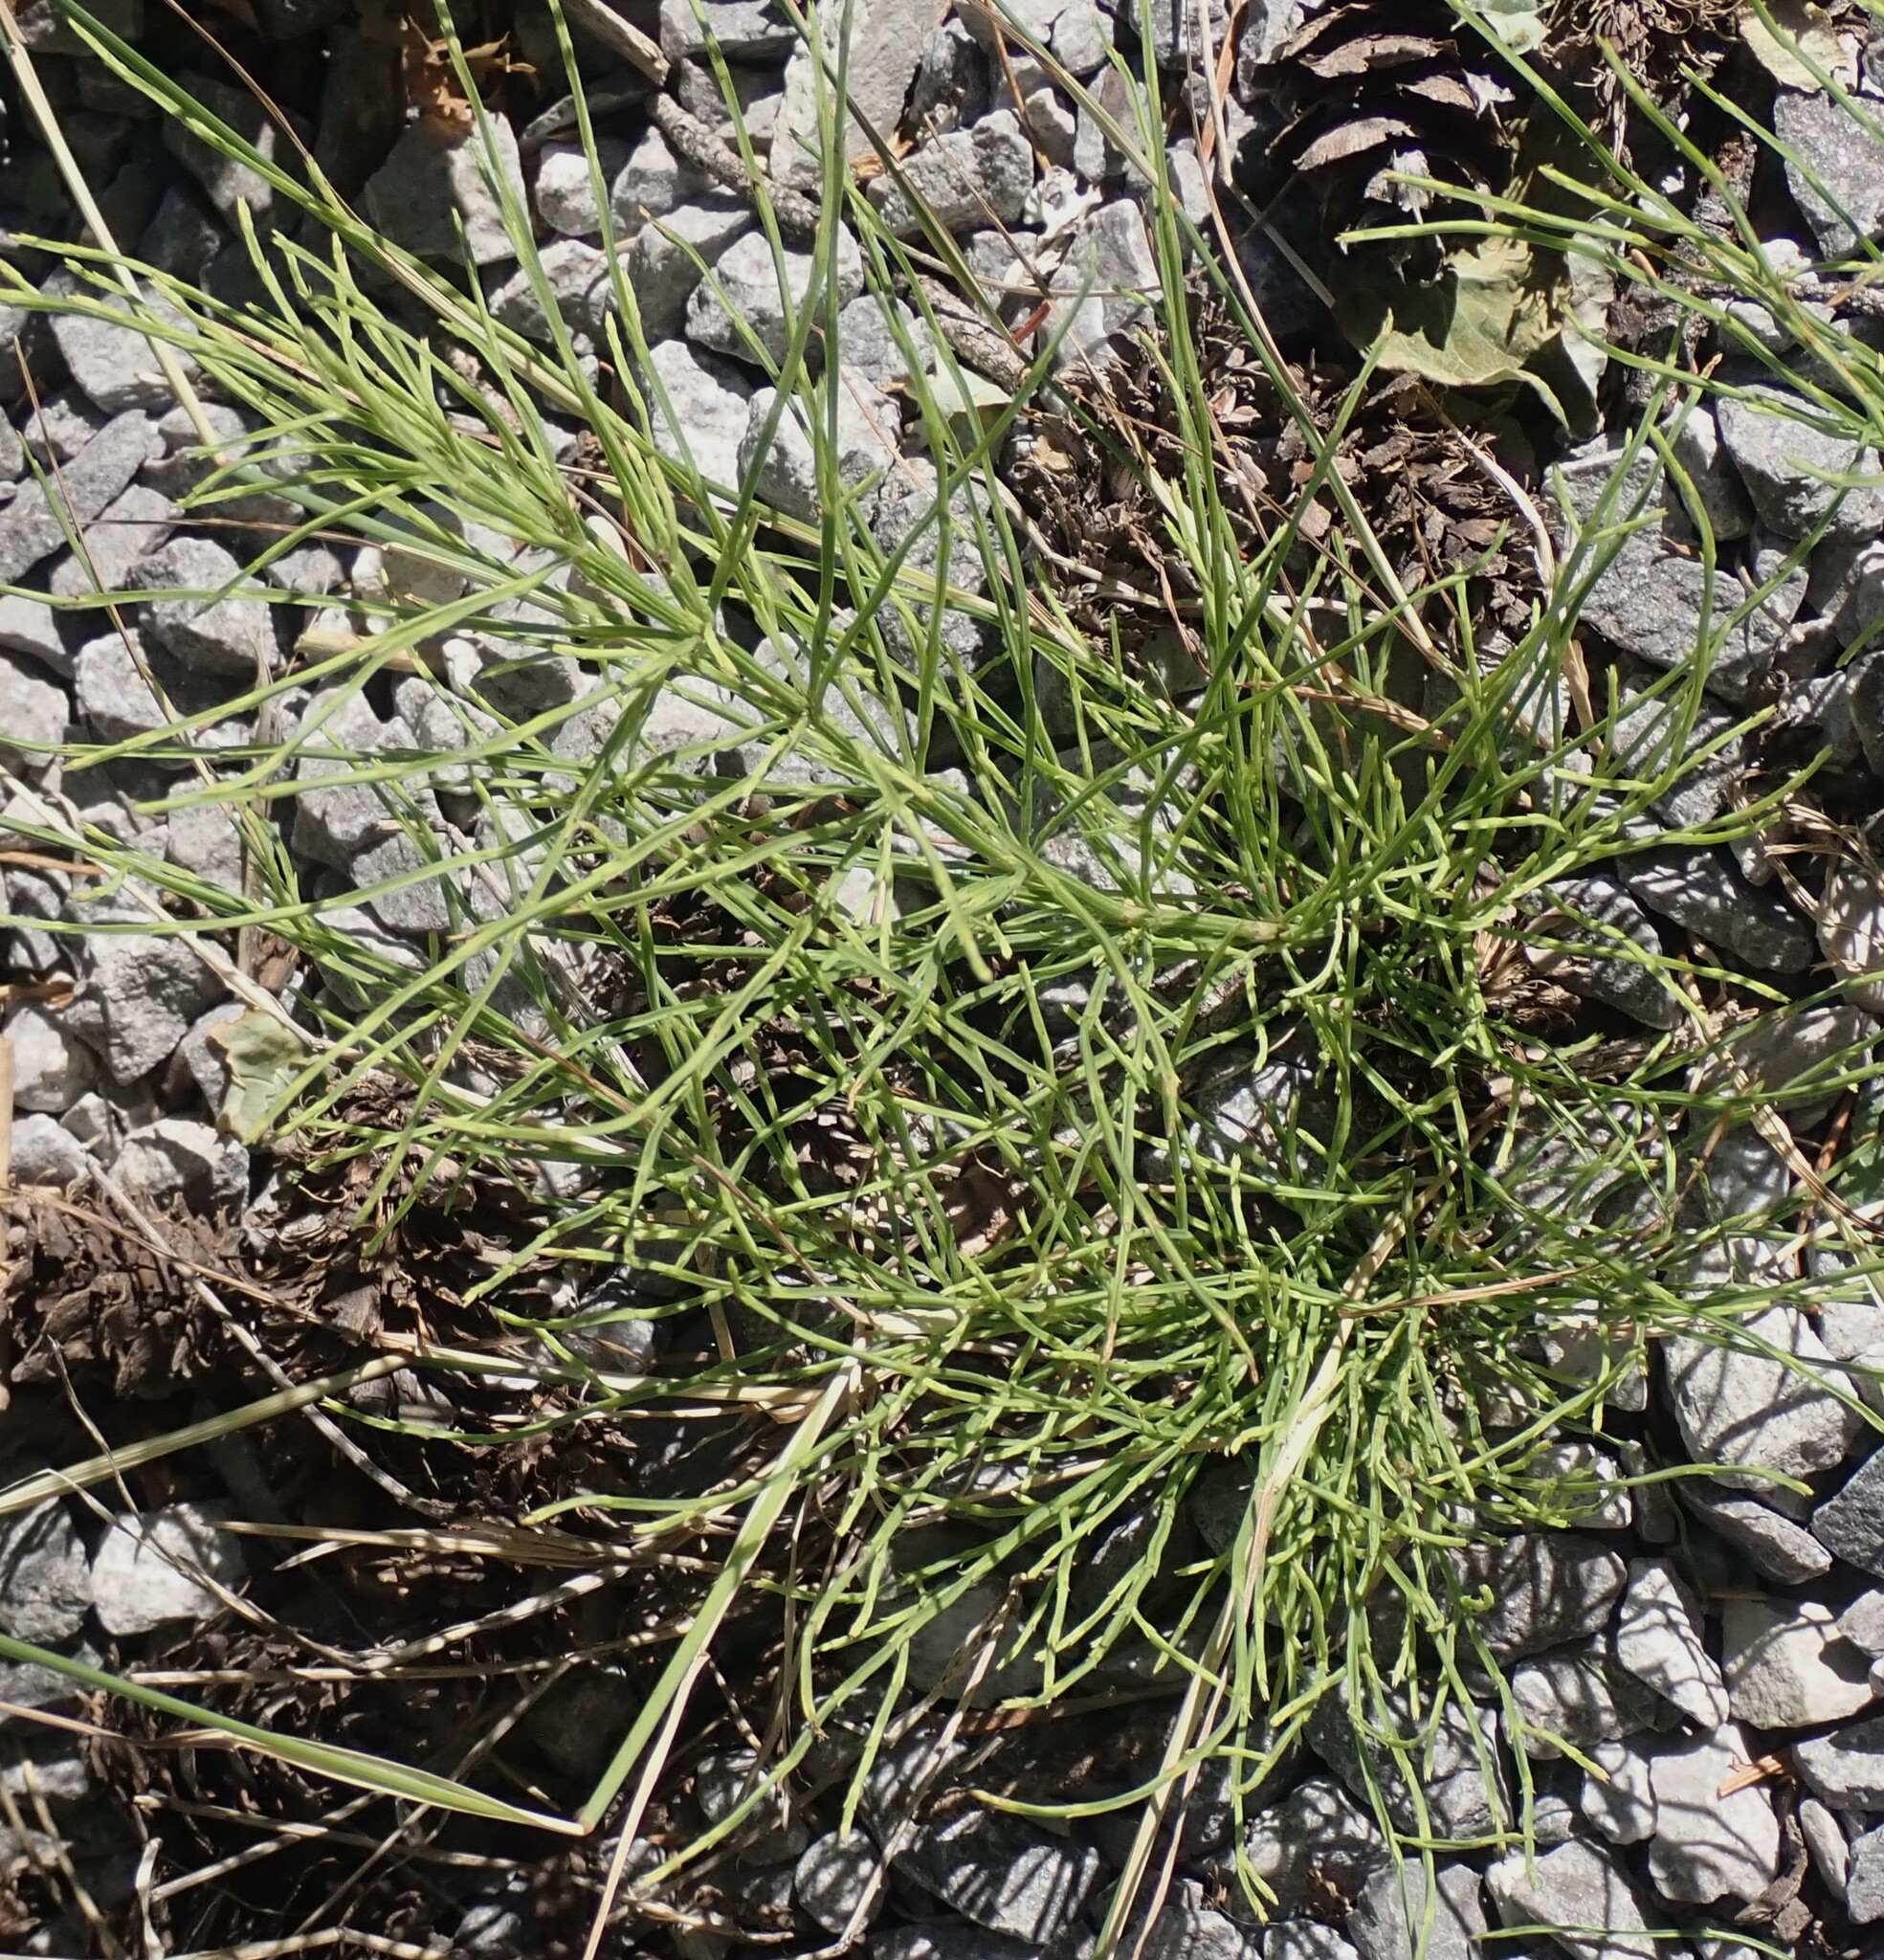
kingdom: Plantae
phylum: Tracheophyta
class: Polypodiopsida
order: Equisetales
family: Equisetaceae
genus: Equisetum
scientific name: Equisetum arvense
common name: Field horsetail
